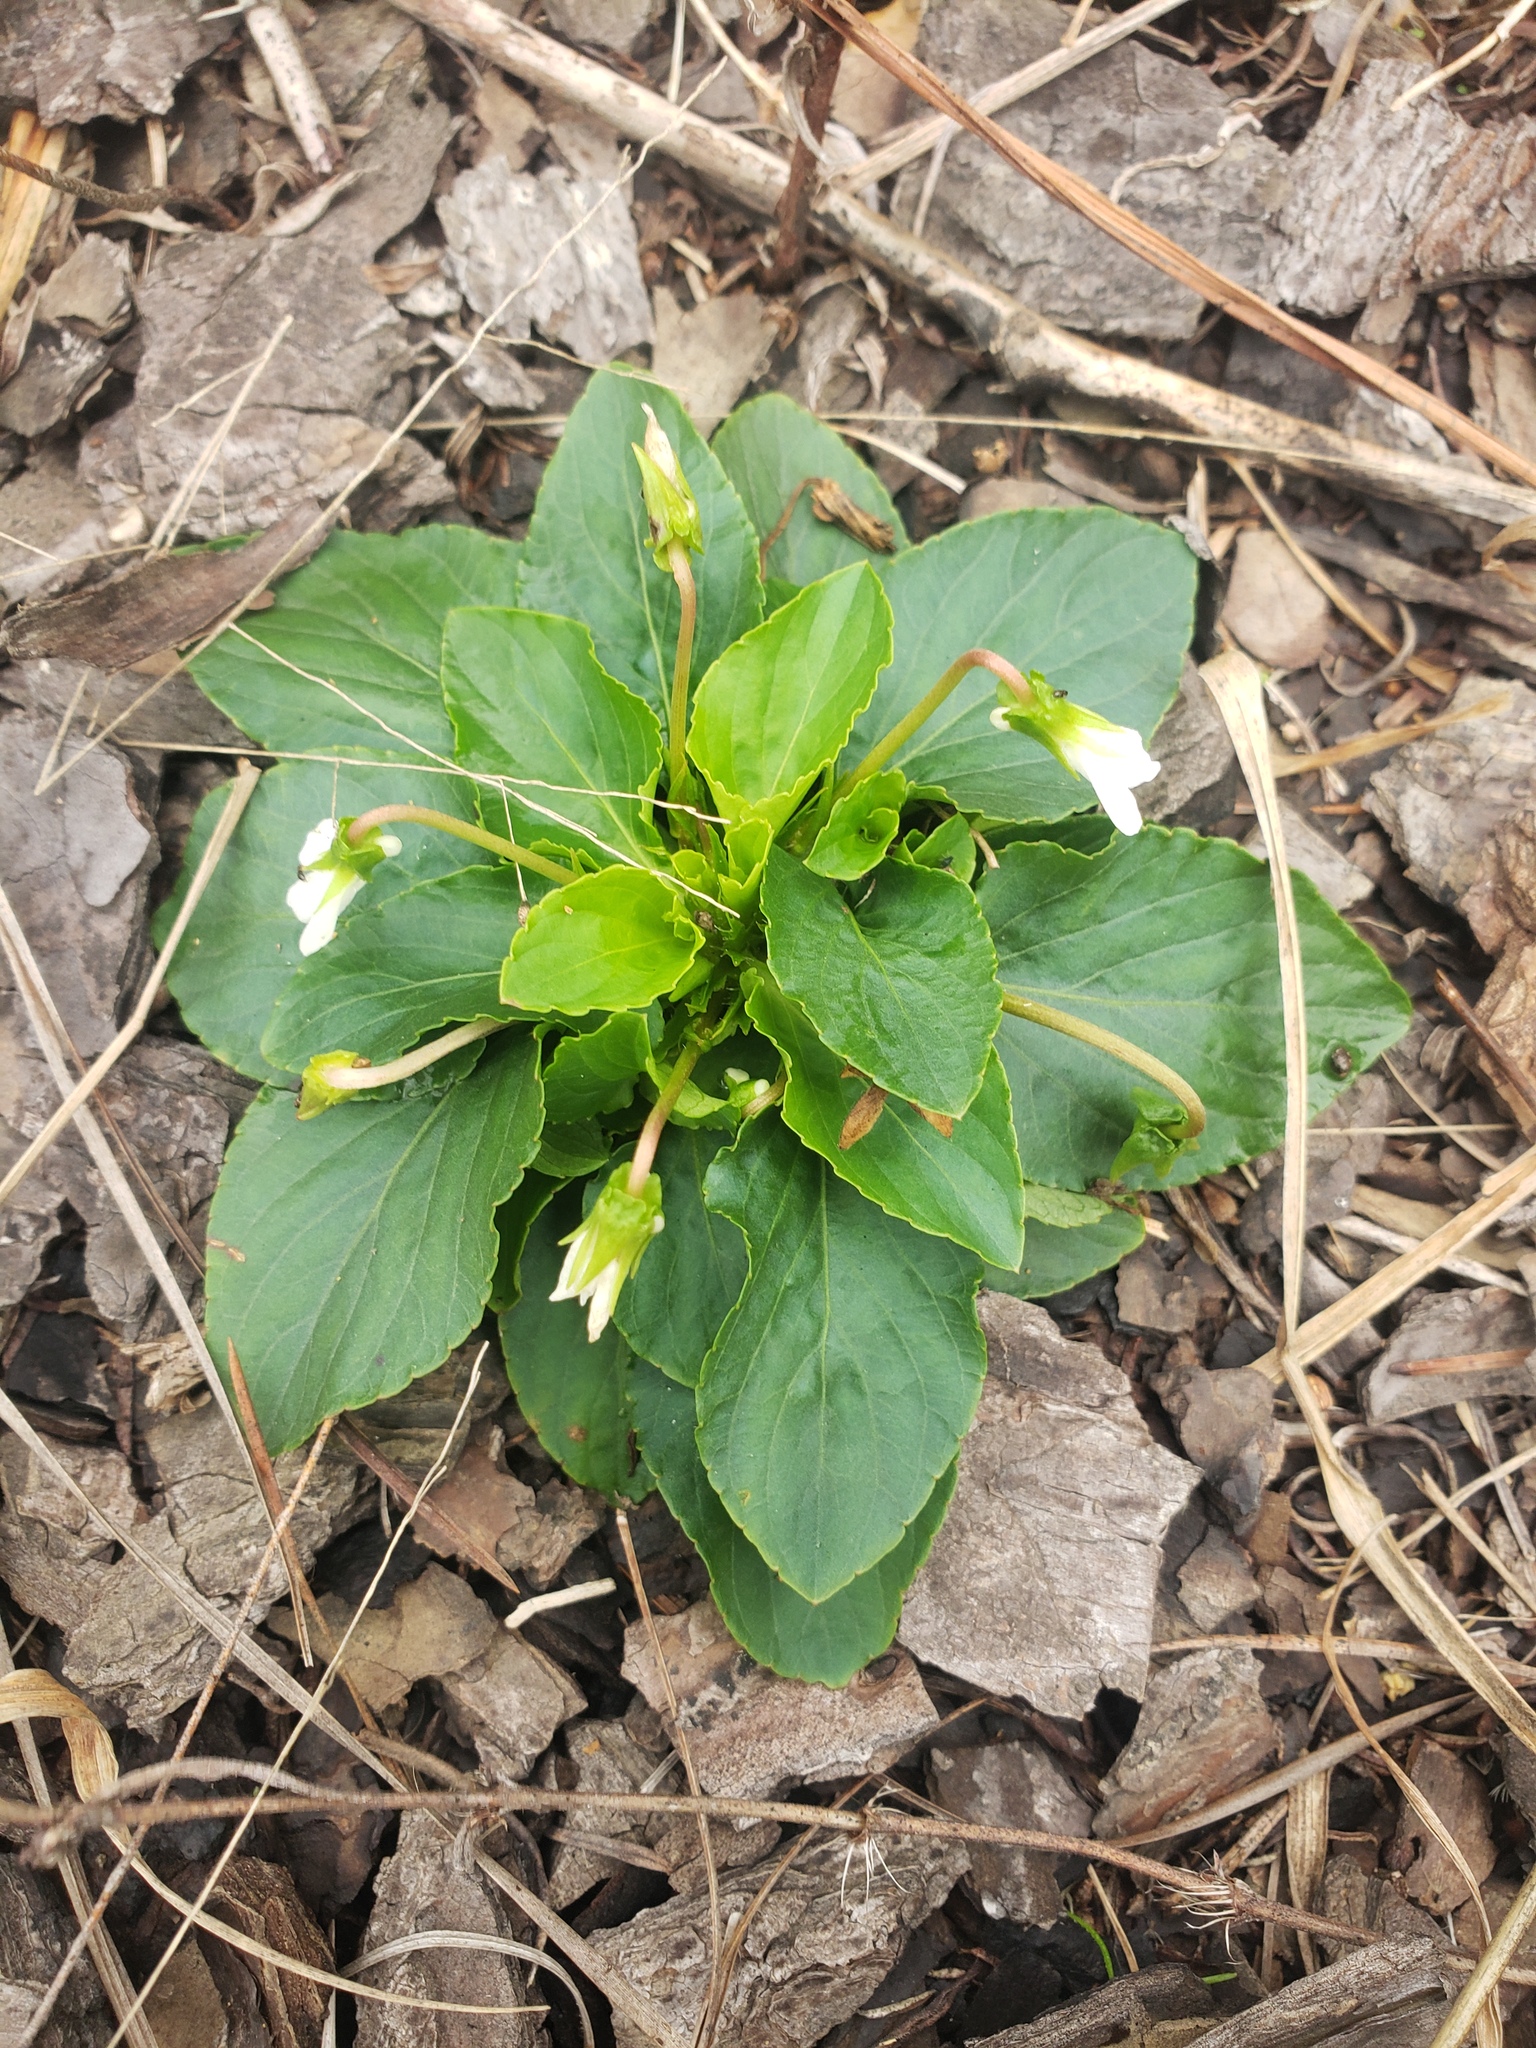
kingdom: Plantae
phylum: Tracheophyta
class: Magnoliopsida
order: Malpighiales
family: Violaceae
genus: Viola
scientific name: Viola primulifolia
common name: Primrose-leaf violet
